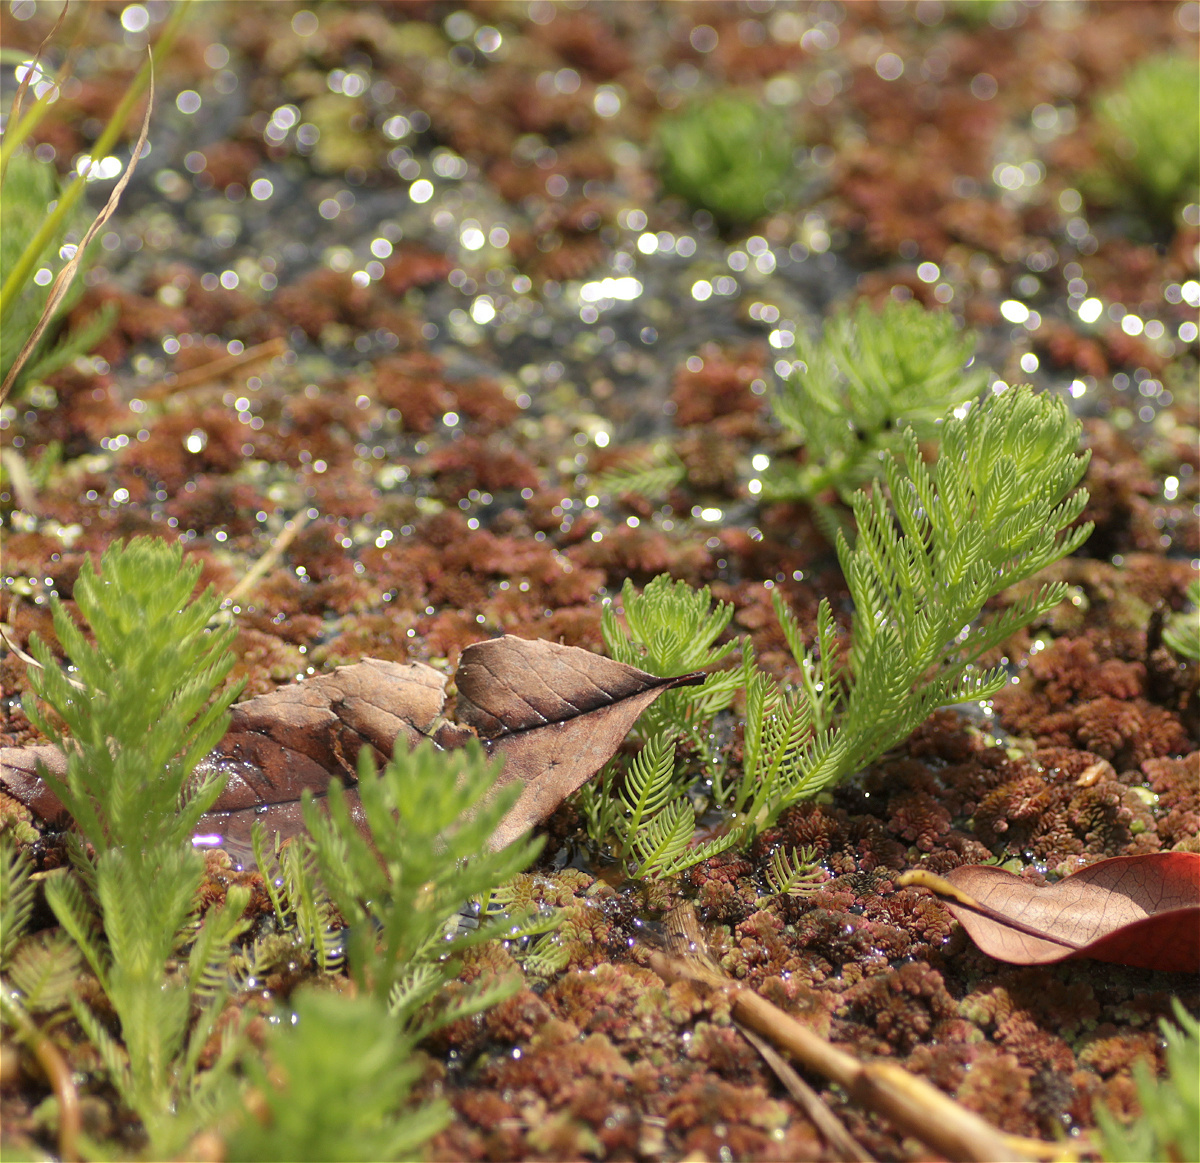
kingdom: Plantae
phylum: Tracheophyta
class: Magnoliopsida
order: Saxifragales
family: Haloragaceae
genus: Myriophyllum
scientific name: Myriophyllum aquaticum
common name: Parrot's feather
